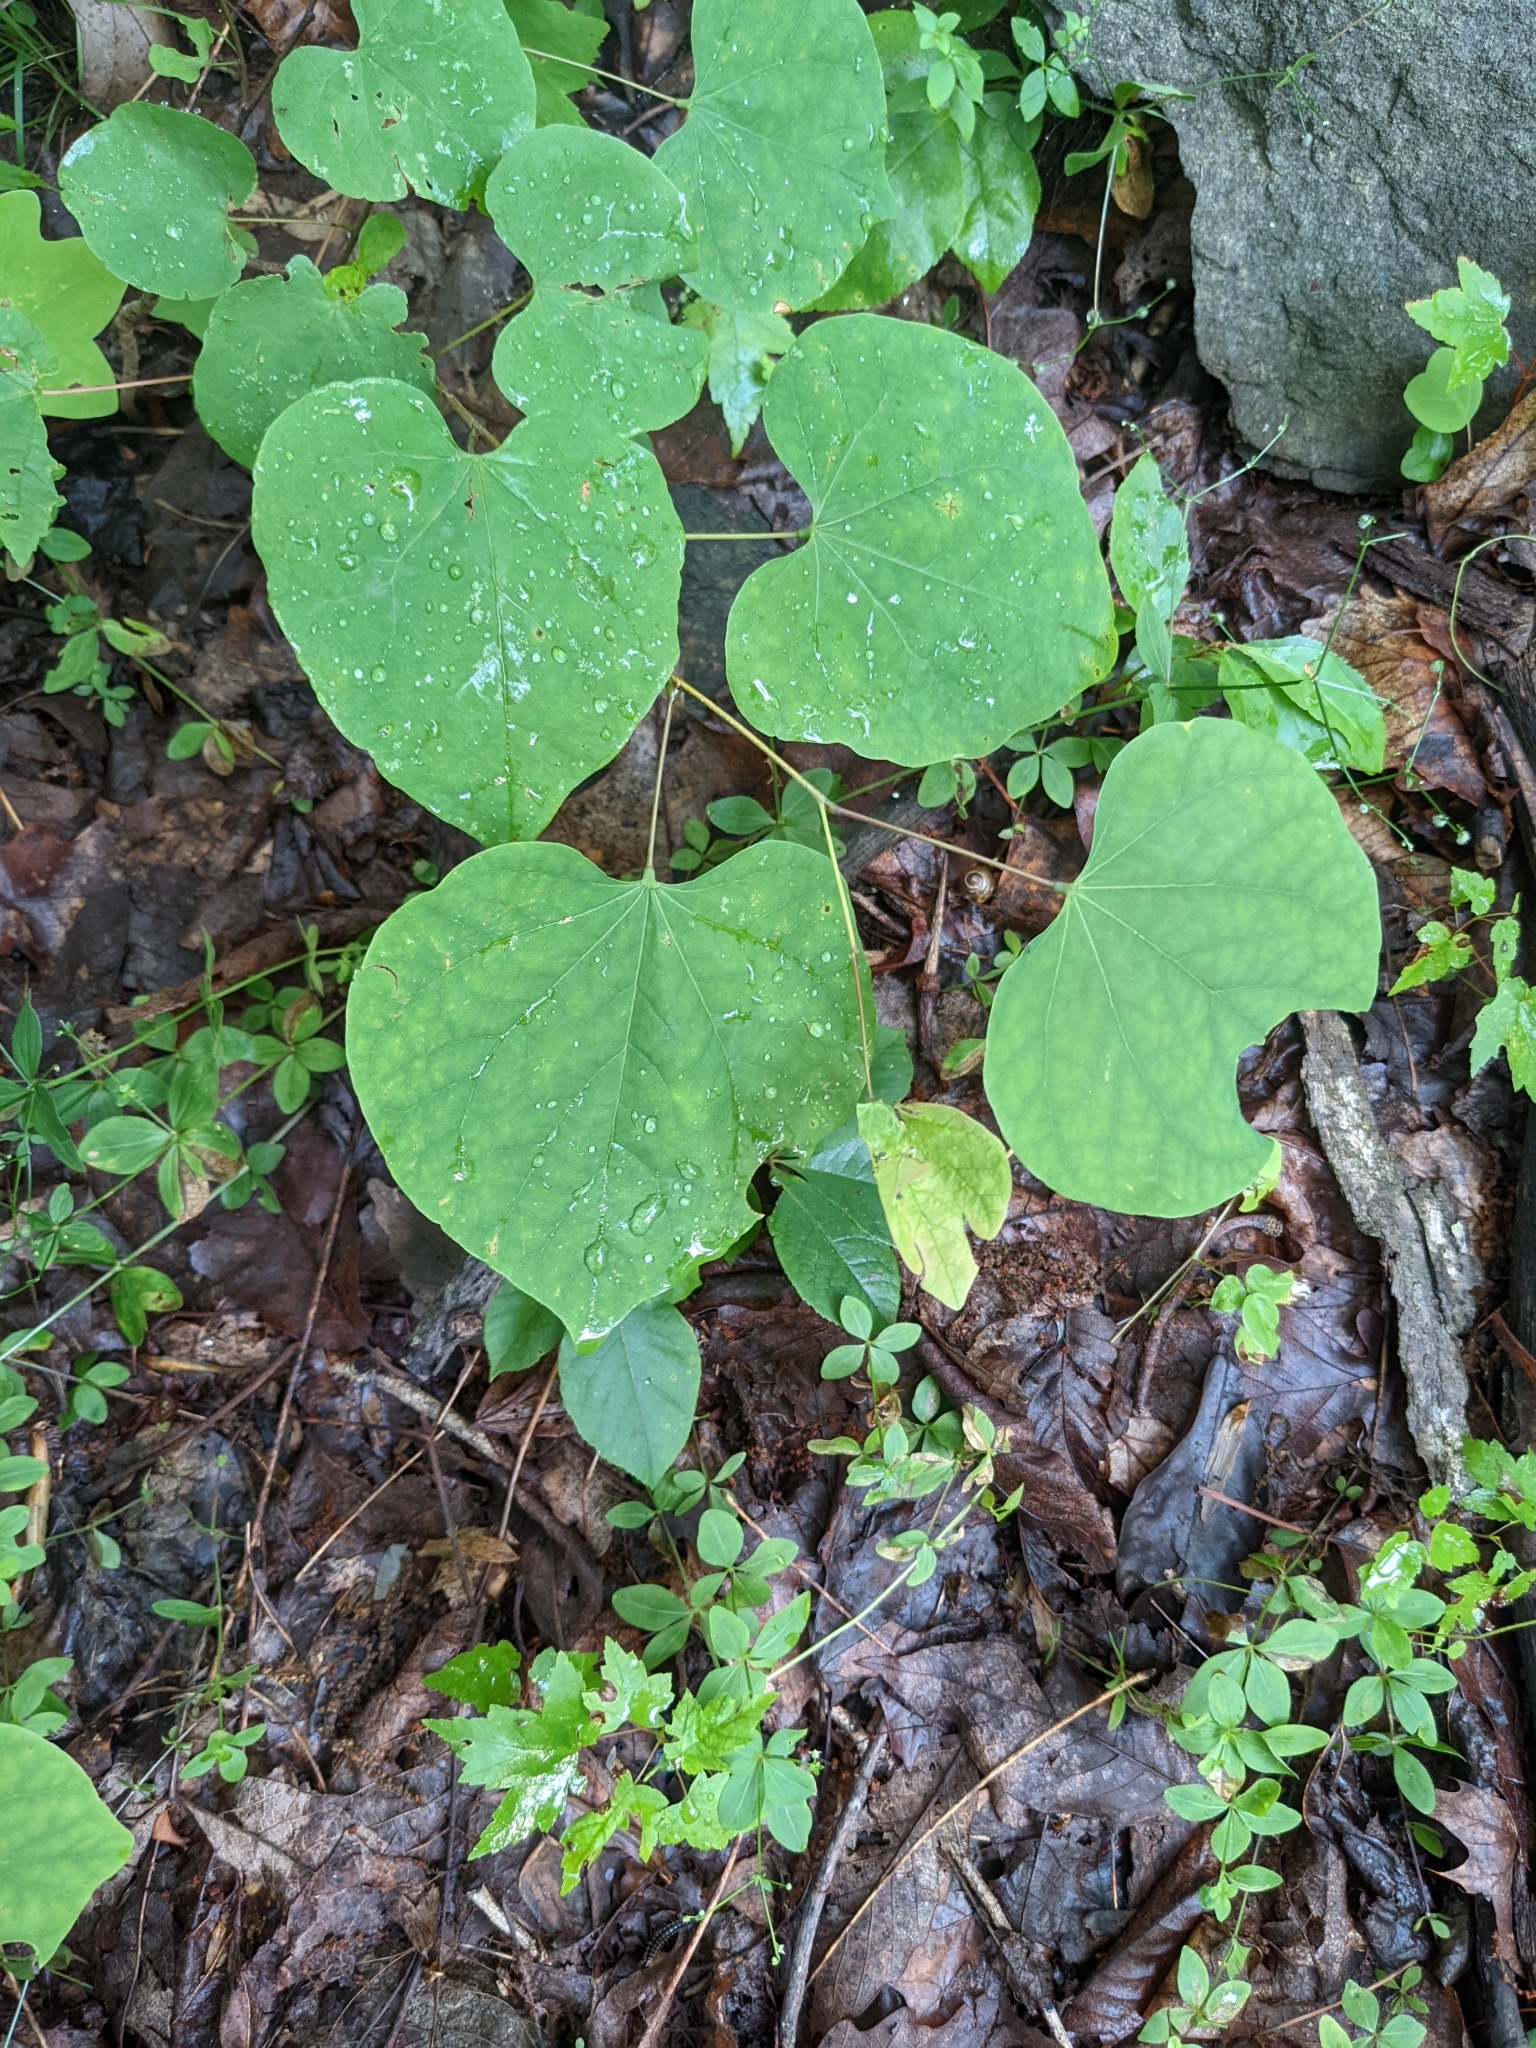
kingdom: Plantae
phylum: Tracheophyta
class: Magnoliopsida
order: Fabales
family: Fabaceae
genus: Cercis
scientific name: Cercis canadensis
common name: Eastern redbud
